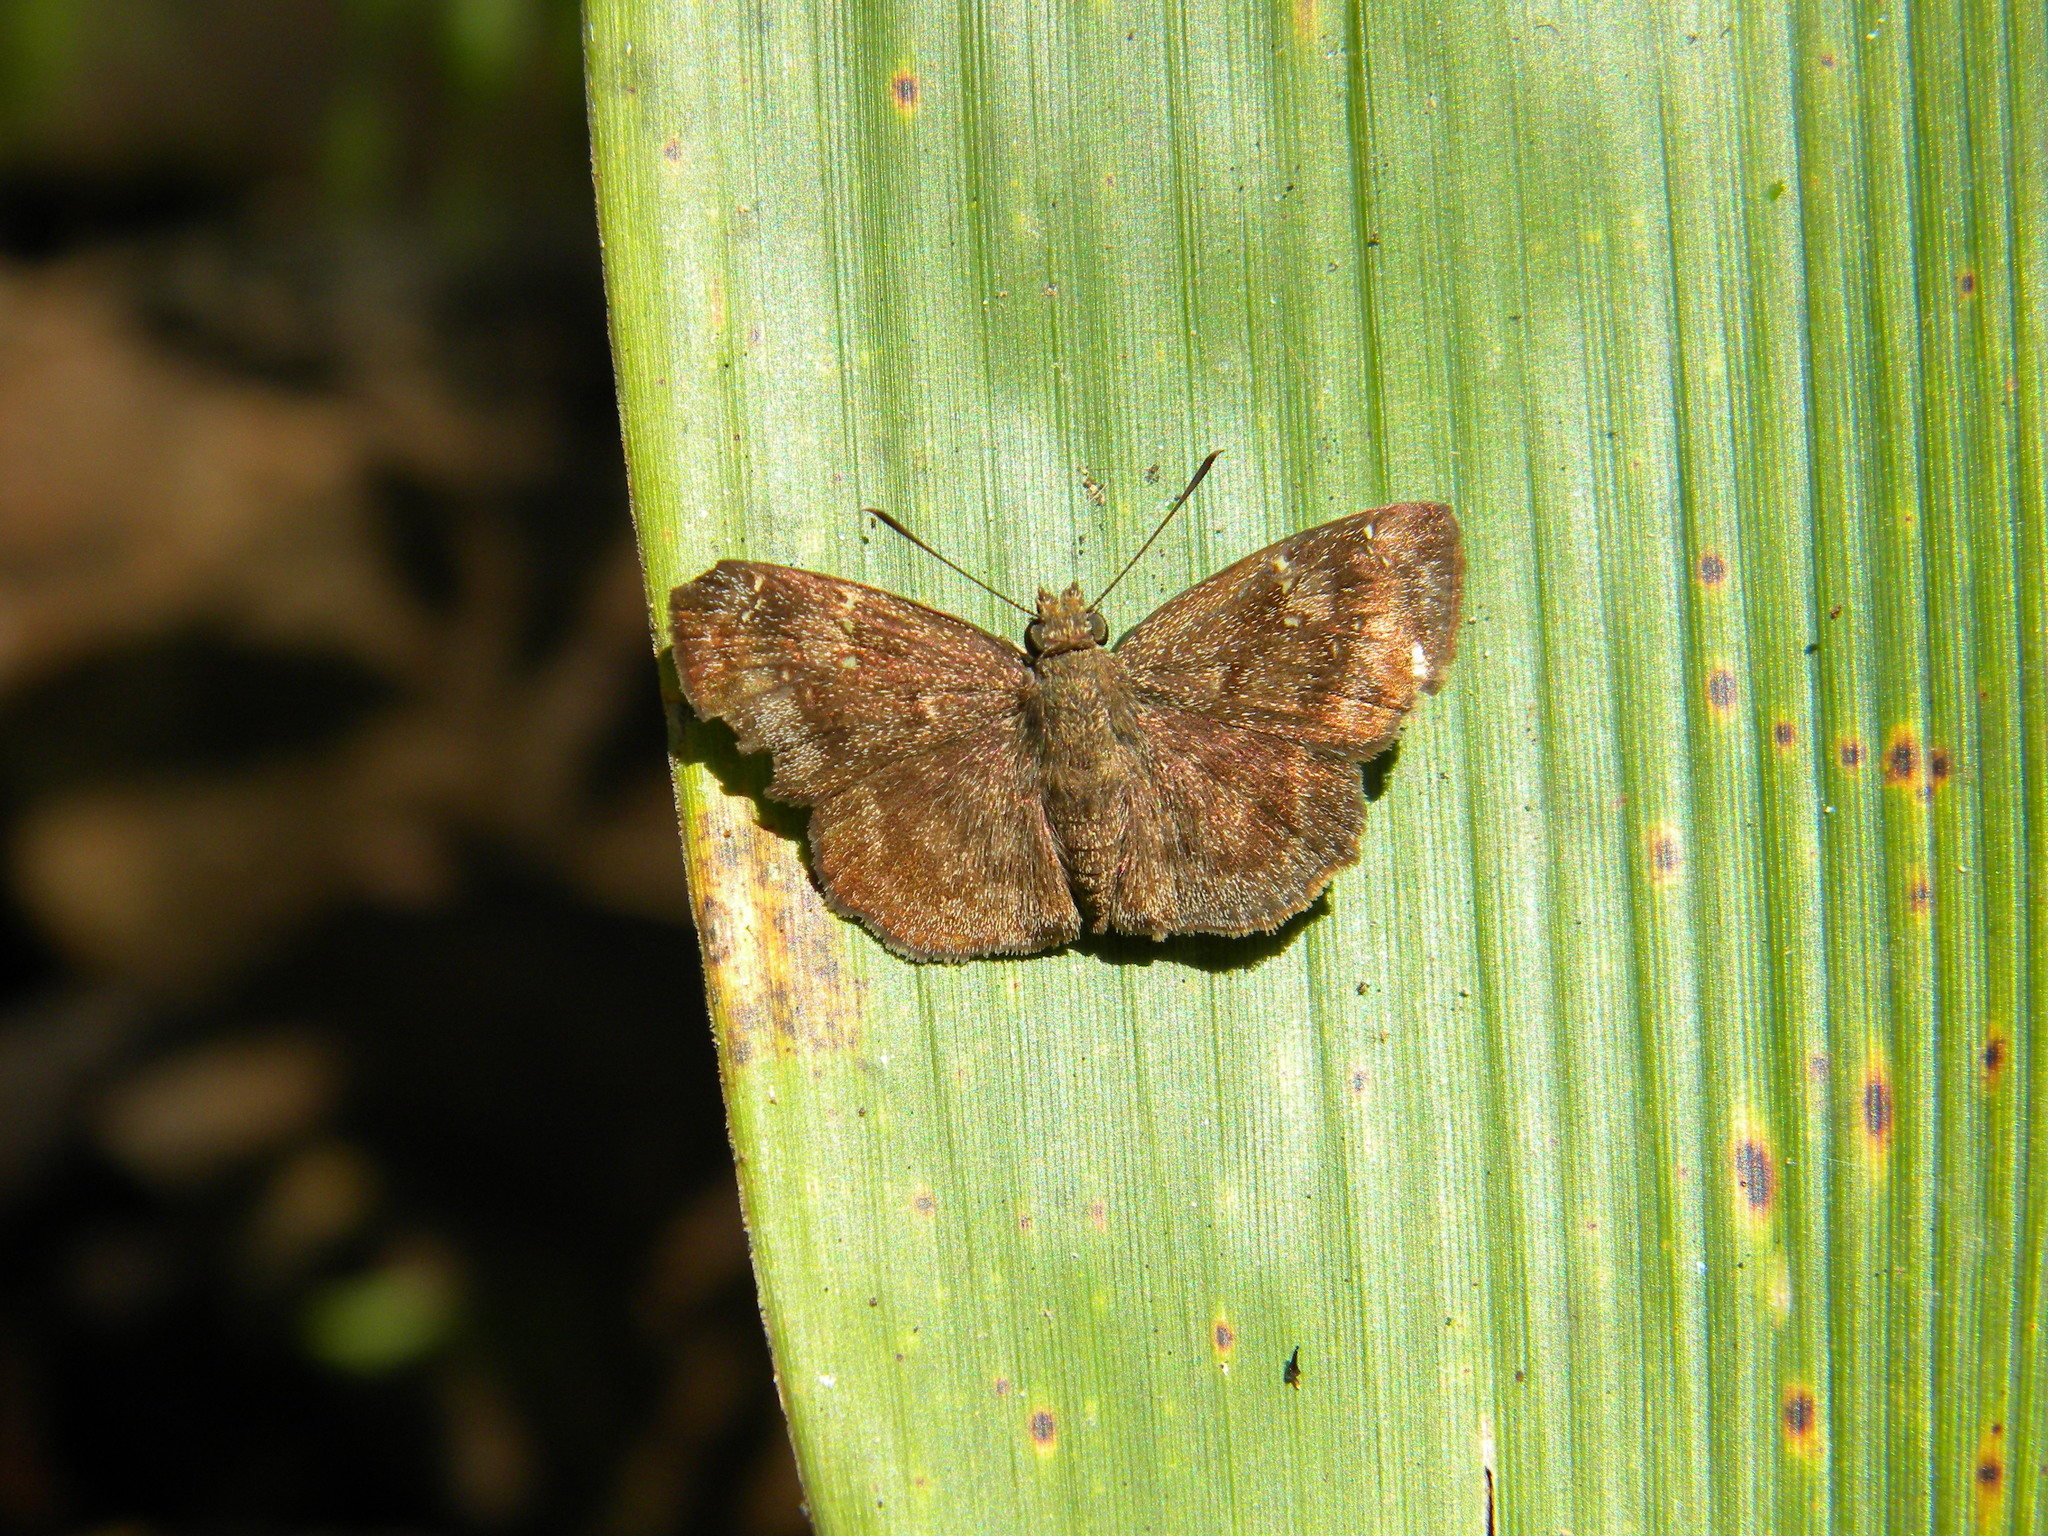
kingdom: Animalia
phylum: Arthropoda
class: Insecta
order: Lepidoptera
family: Hesperiidae
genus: Sarangesa
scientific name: Sarangesa dasahara
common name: Common small flat
